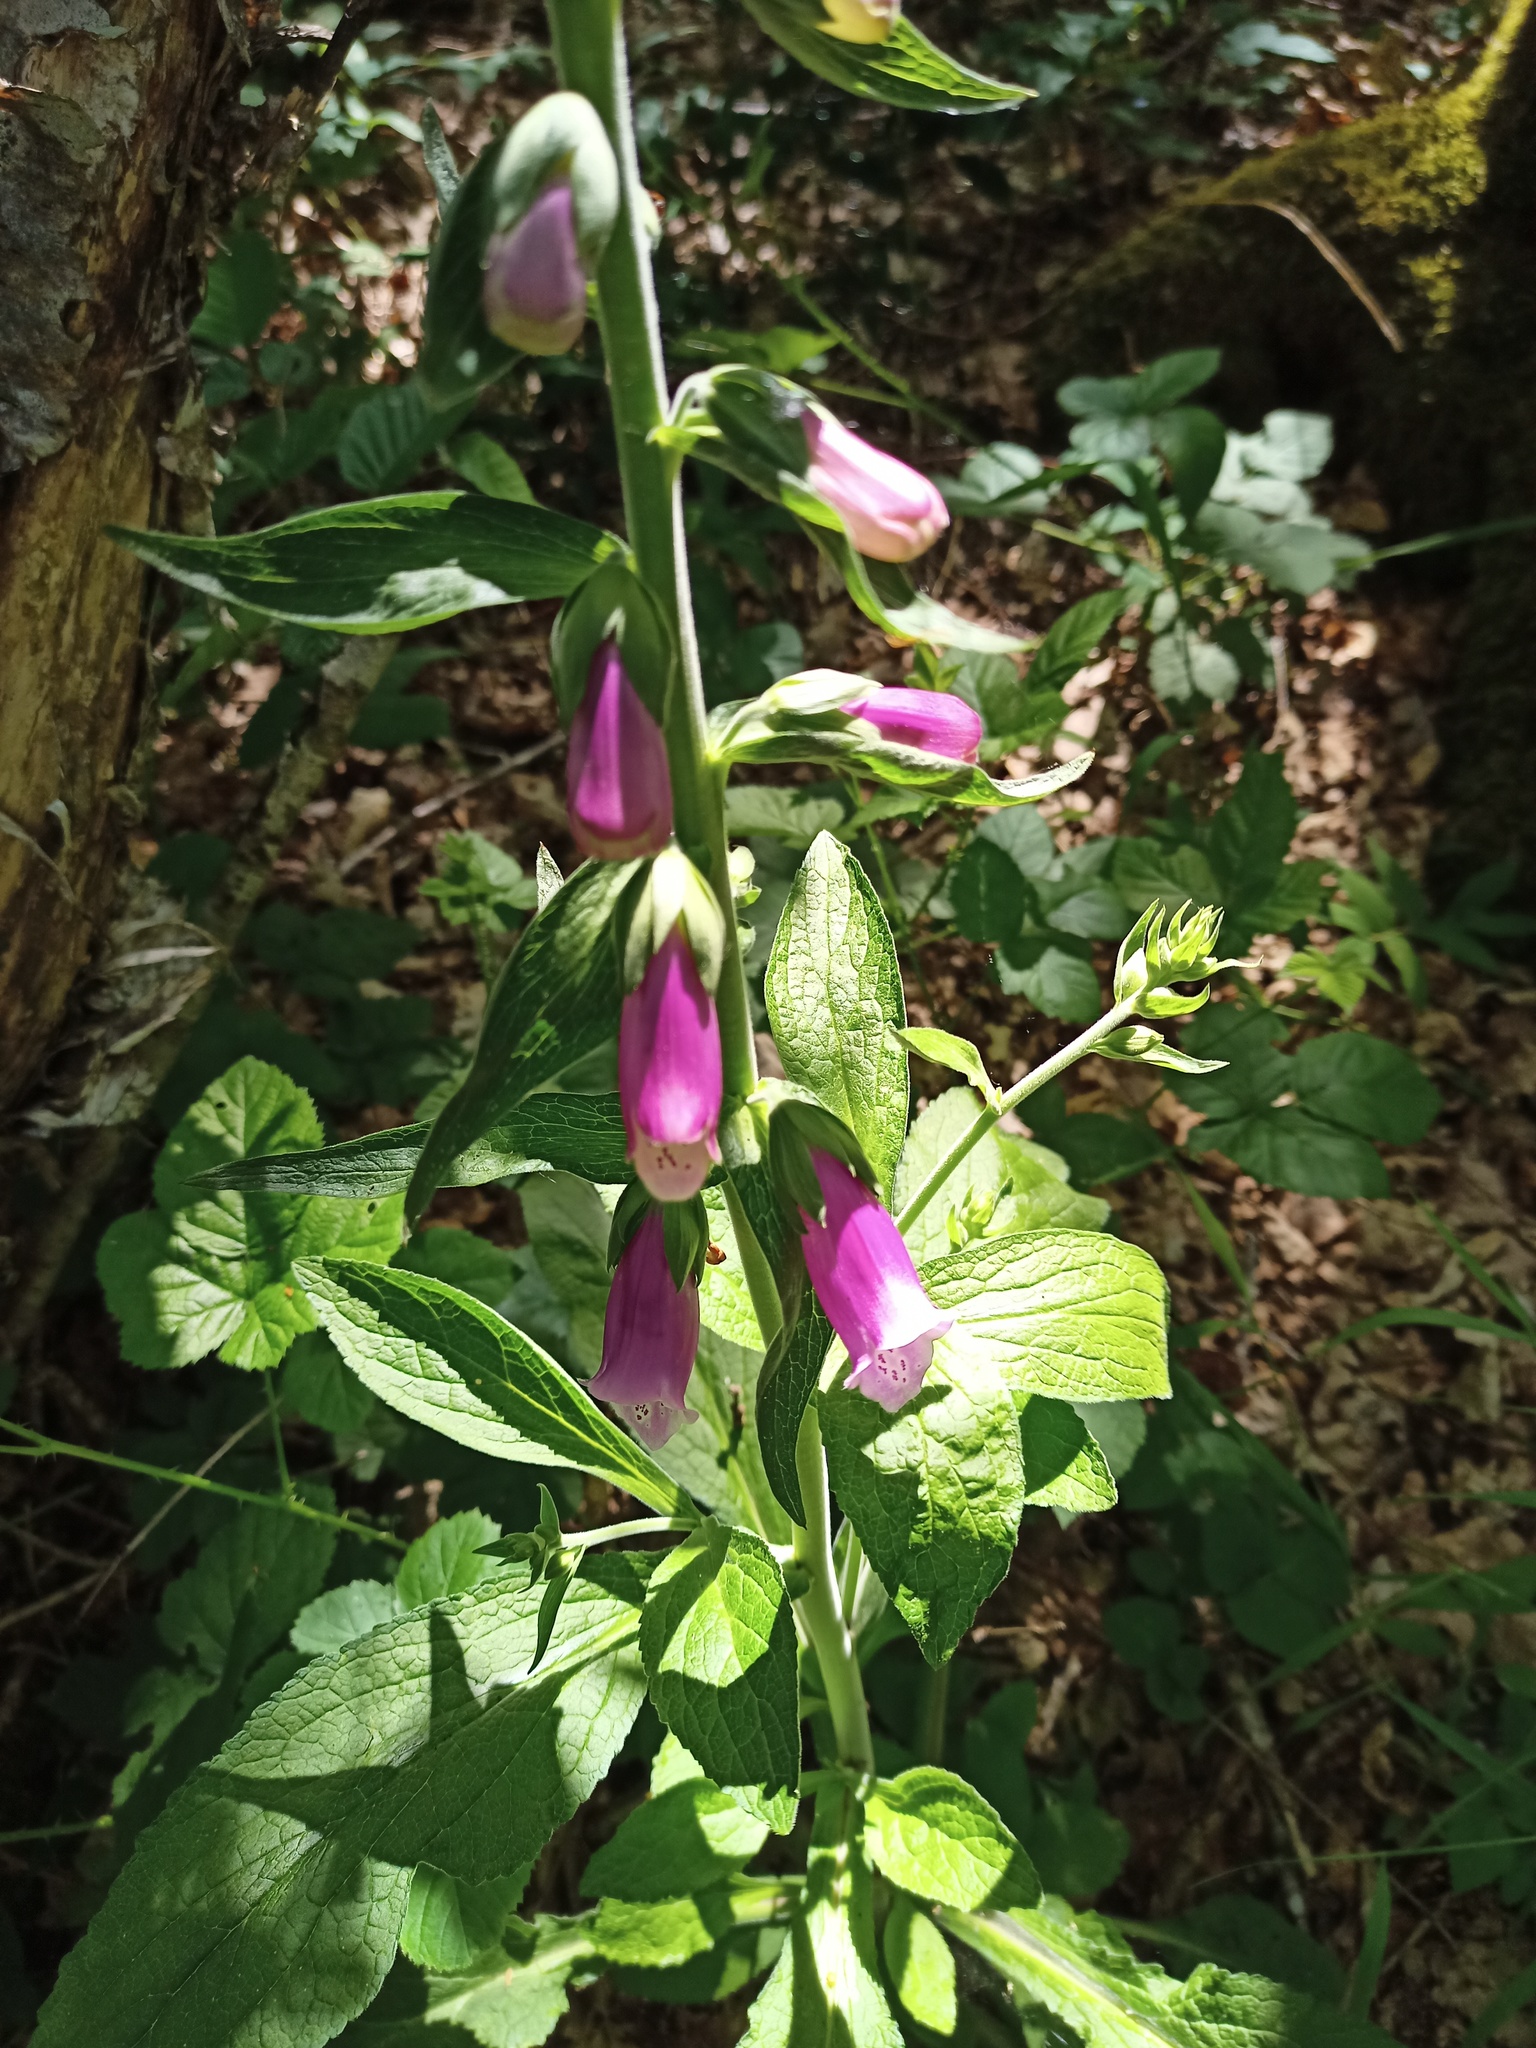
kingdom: Plantae
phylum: Tracheophyta
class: Magnoliopsida
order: Lamiales
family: Plantaginaceae
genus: Digitalis
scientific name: Digitalis purpurea
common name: Foxglove
